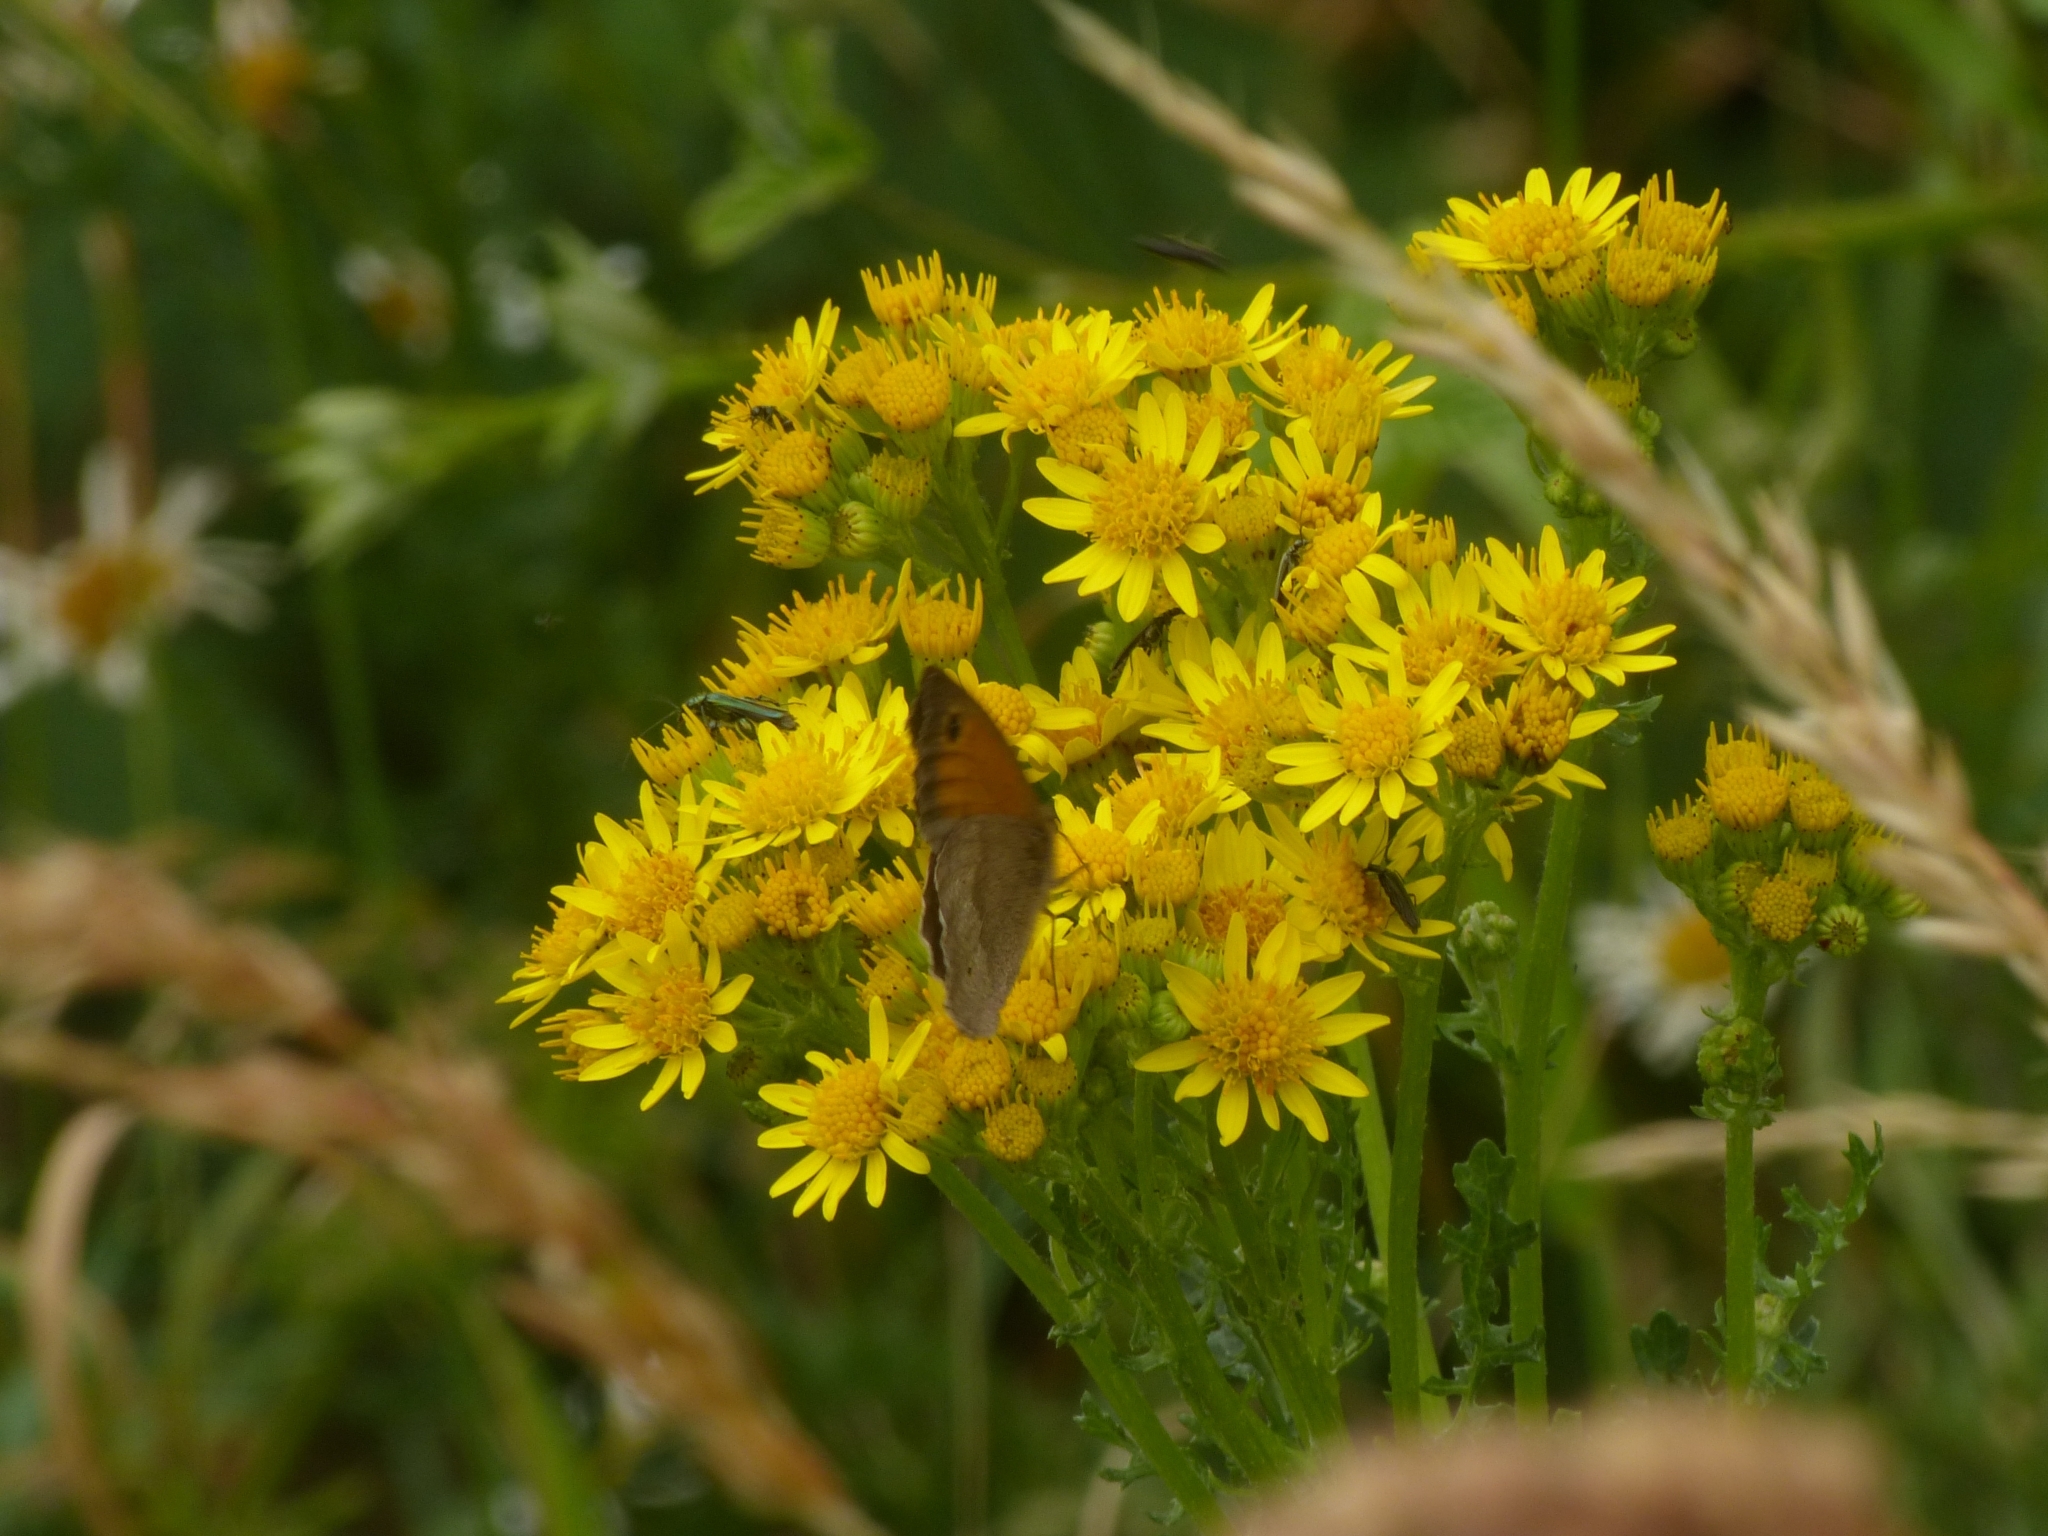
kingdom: Animalia
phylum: Arthropoda
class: Insecta
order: Lepidoptera
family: Nymphalidae
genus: Maniola
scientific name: Maniola jurtina
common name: Meadow brown
